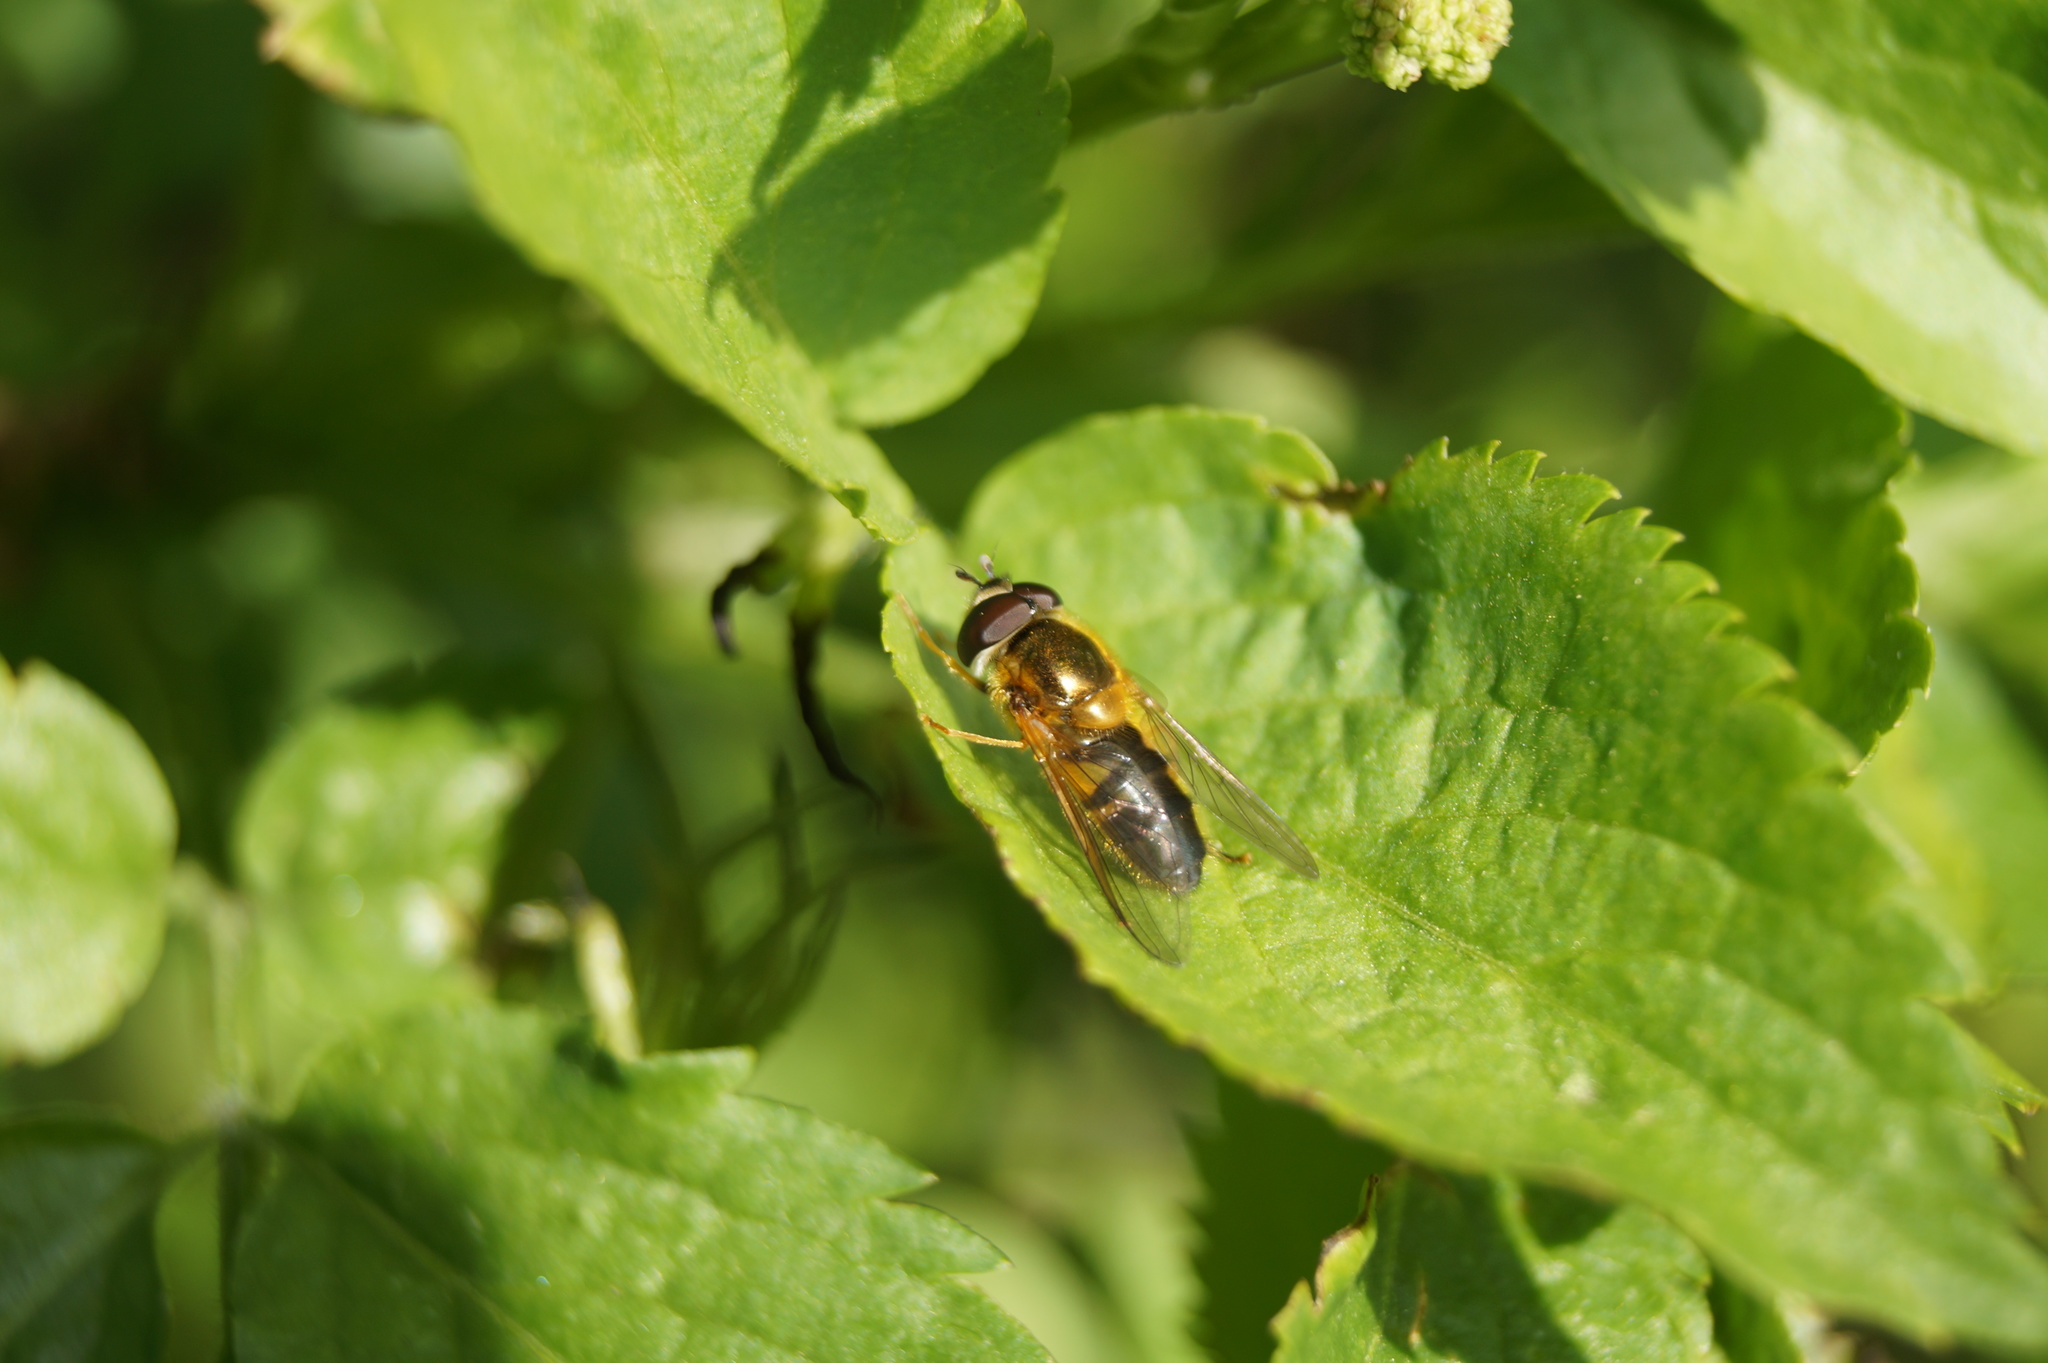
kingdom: Animalia
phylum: Arthropoda
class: Insecta
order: Diptera
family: Syrphidae
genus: Epistrophe
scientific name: Epistrophe eligans
